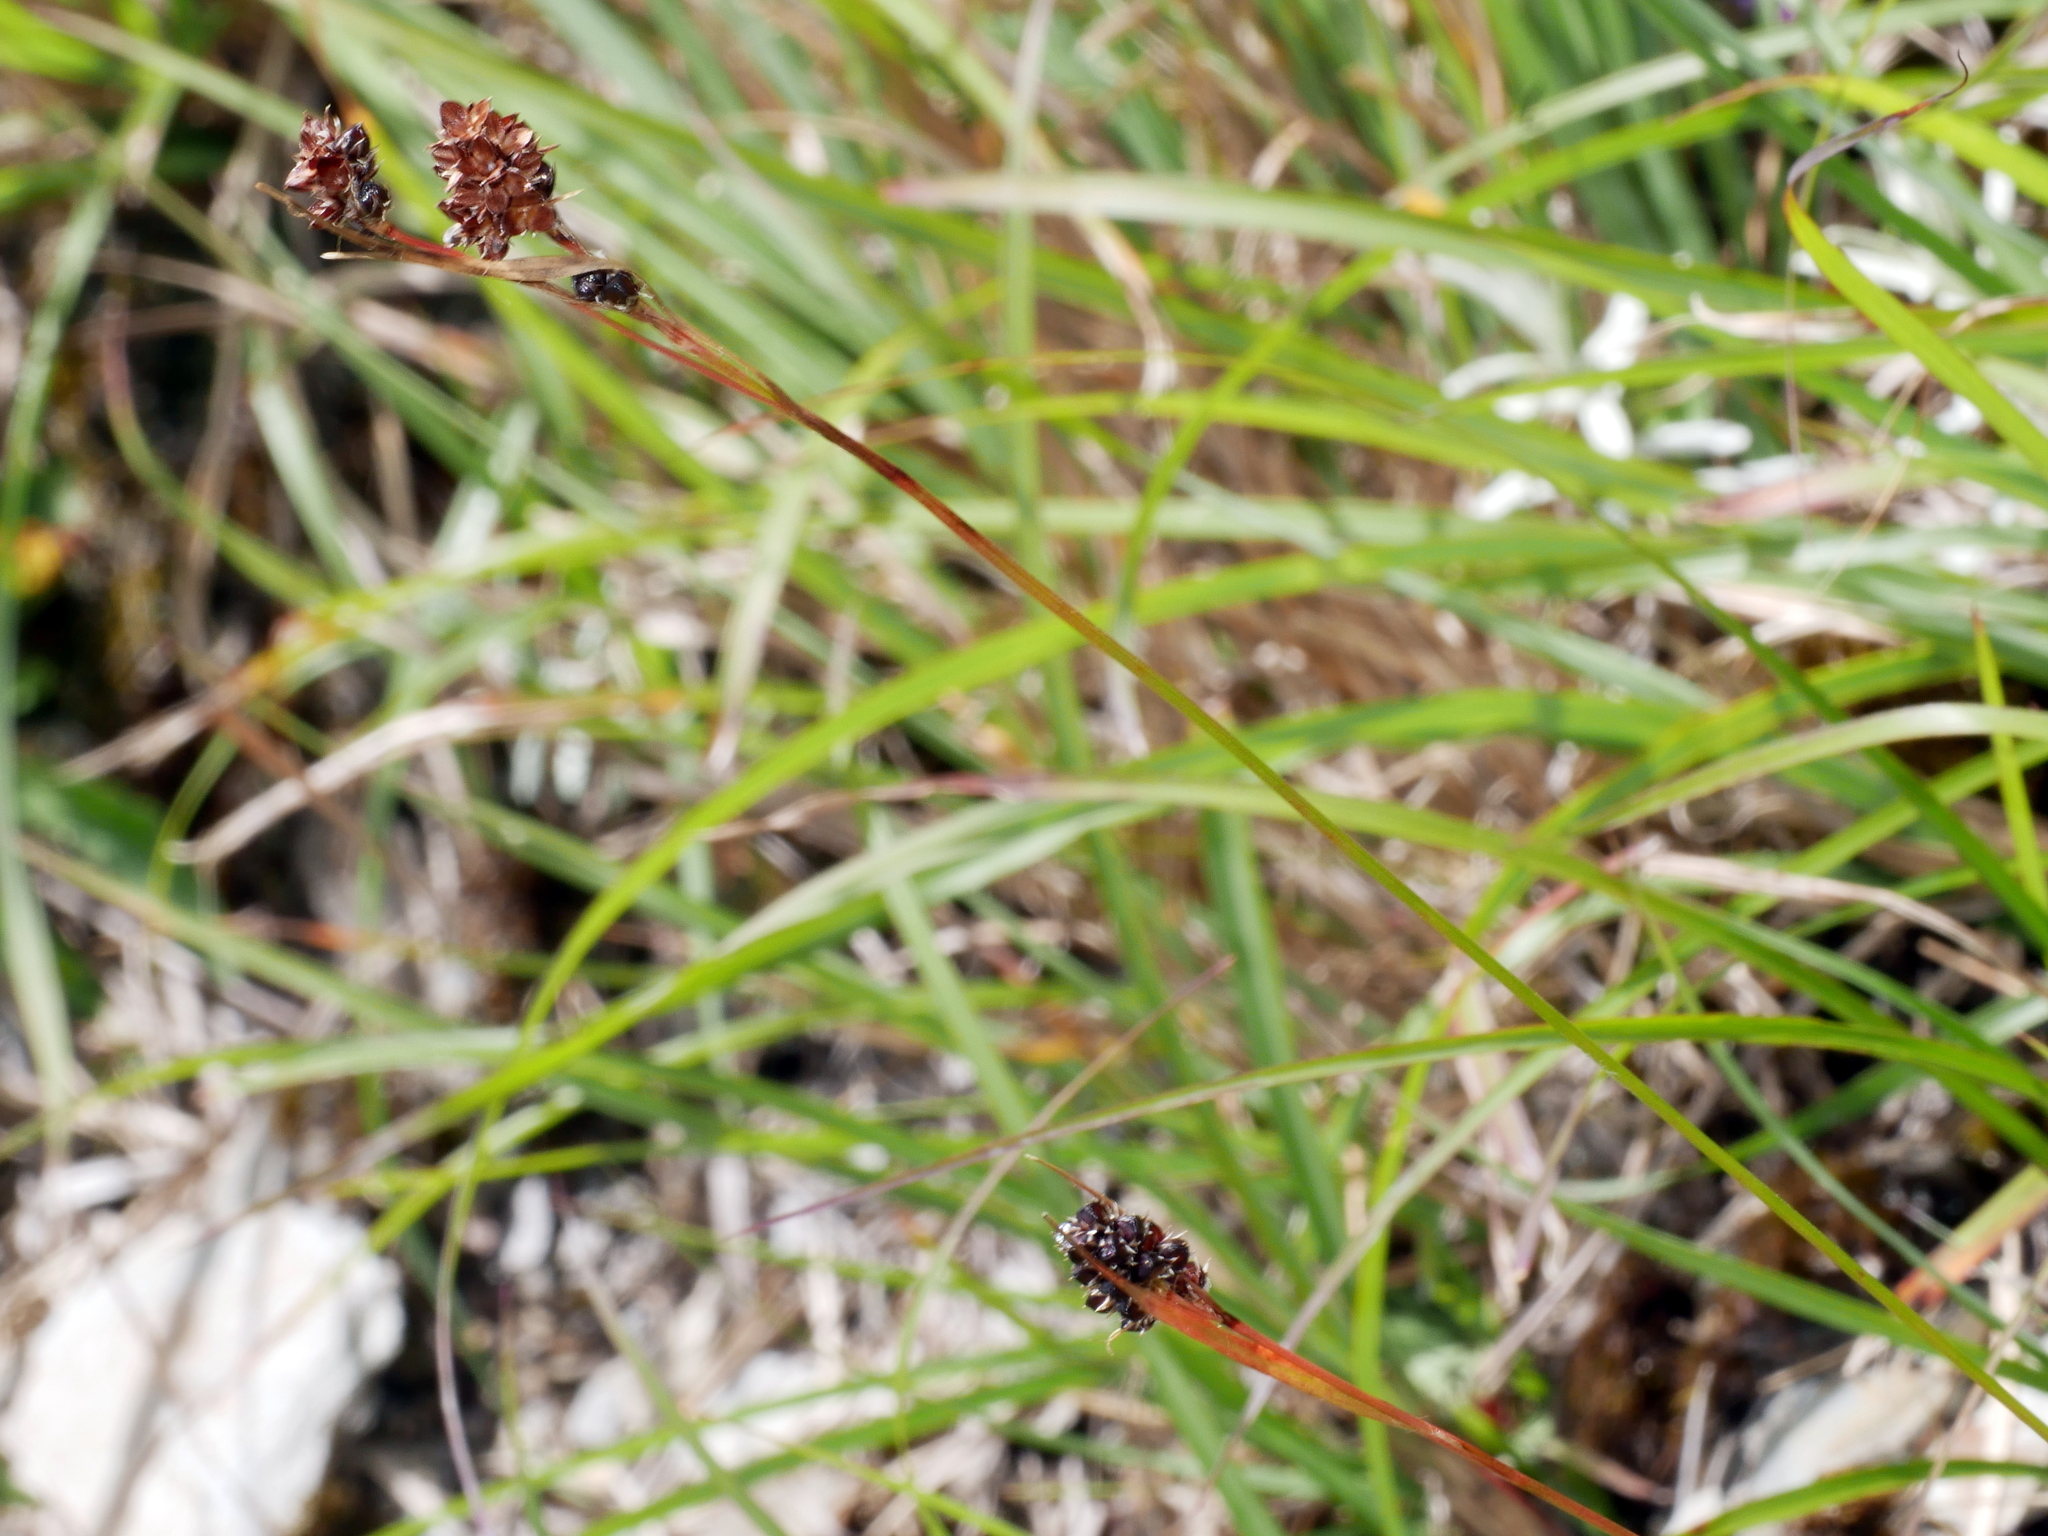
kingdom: Plantae
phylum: Tracheophyta
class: Liliopsida
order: Poales
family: Juncaceae
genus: Luzula
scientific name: Luzula taiwaniana
